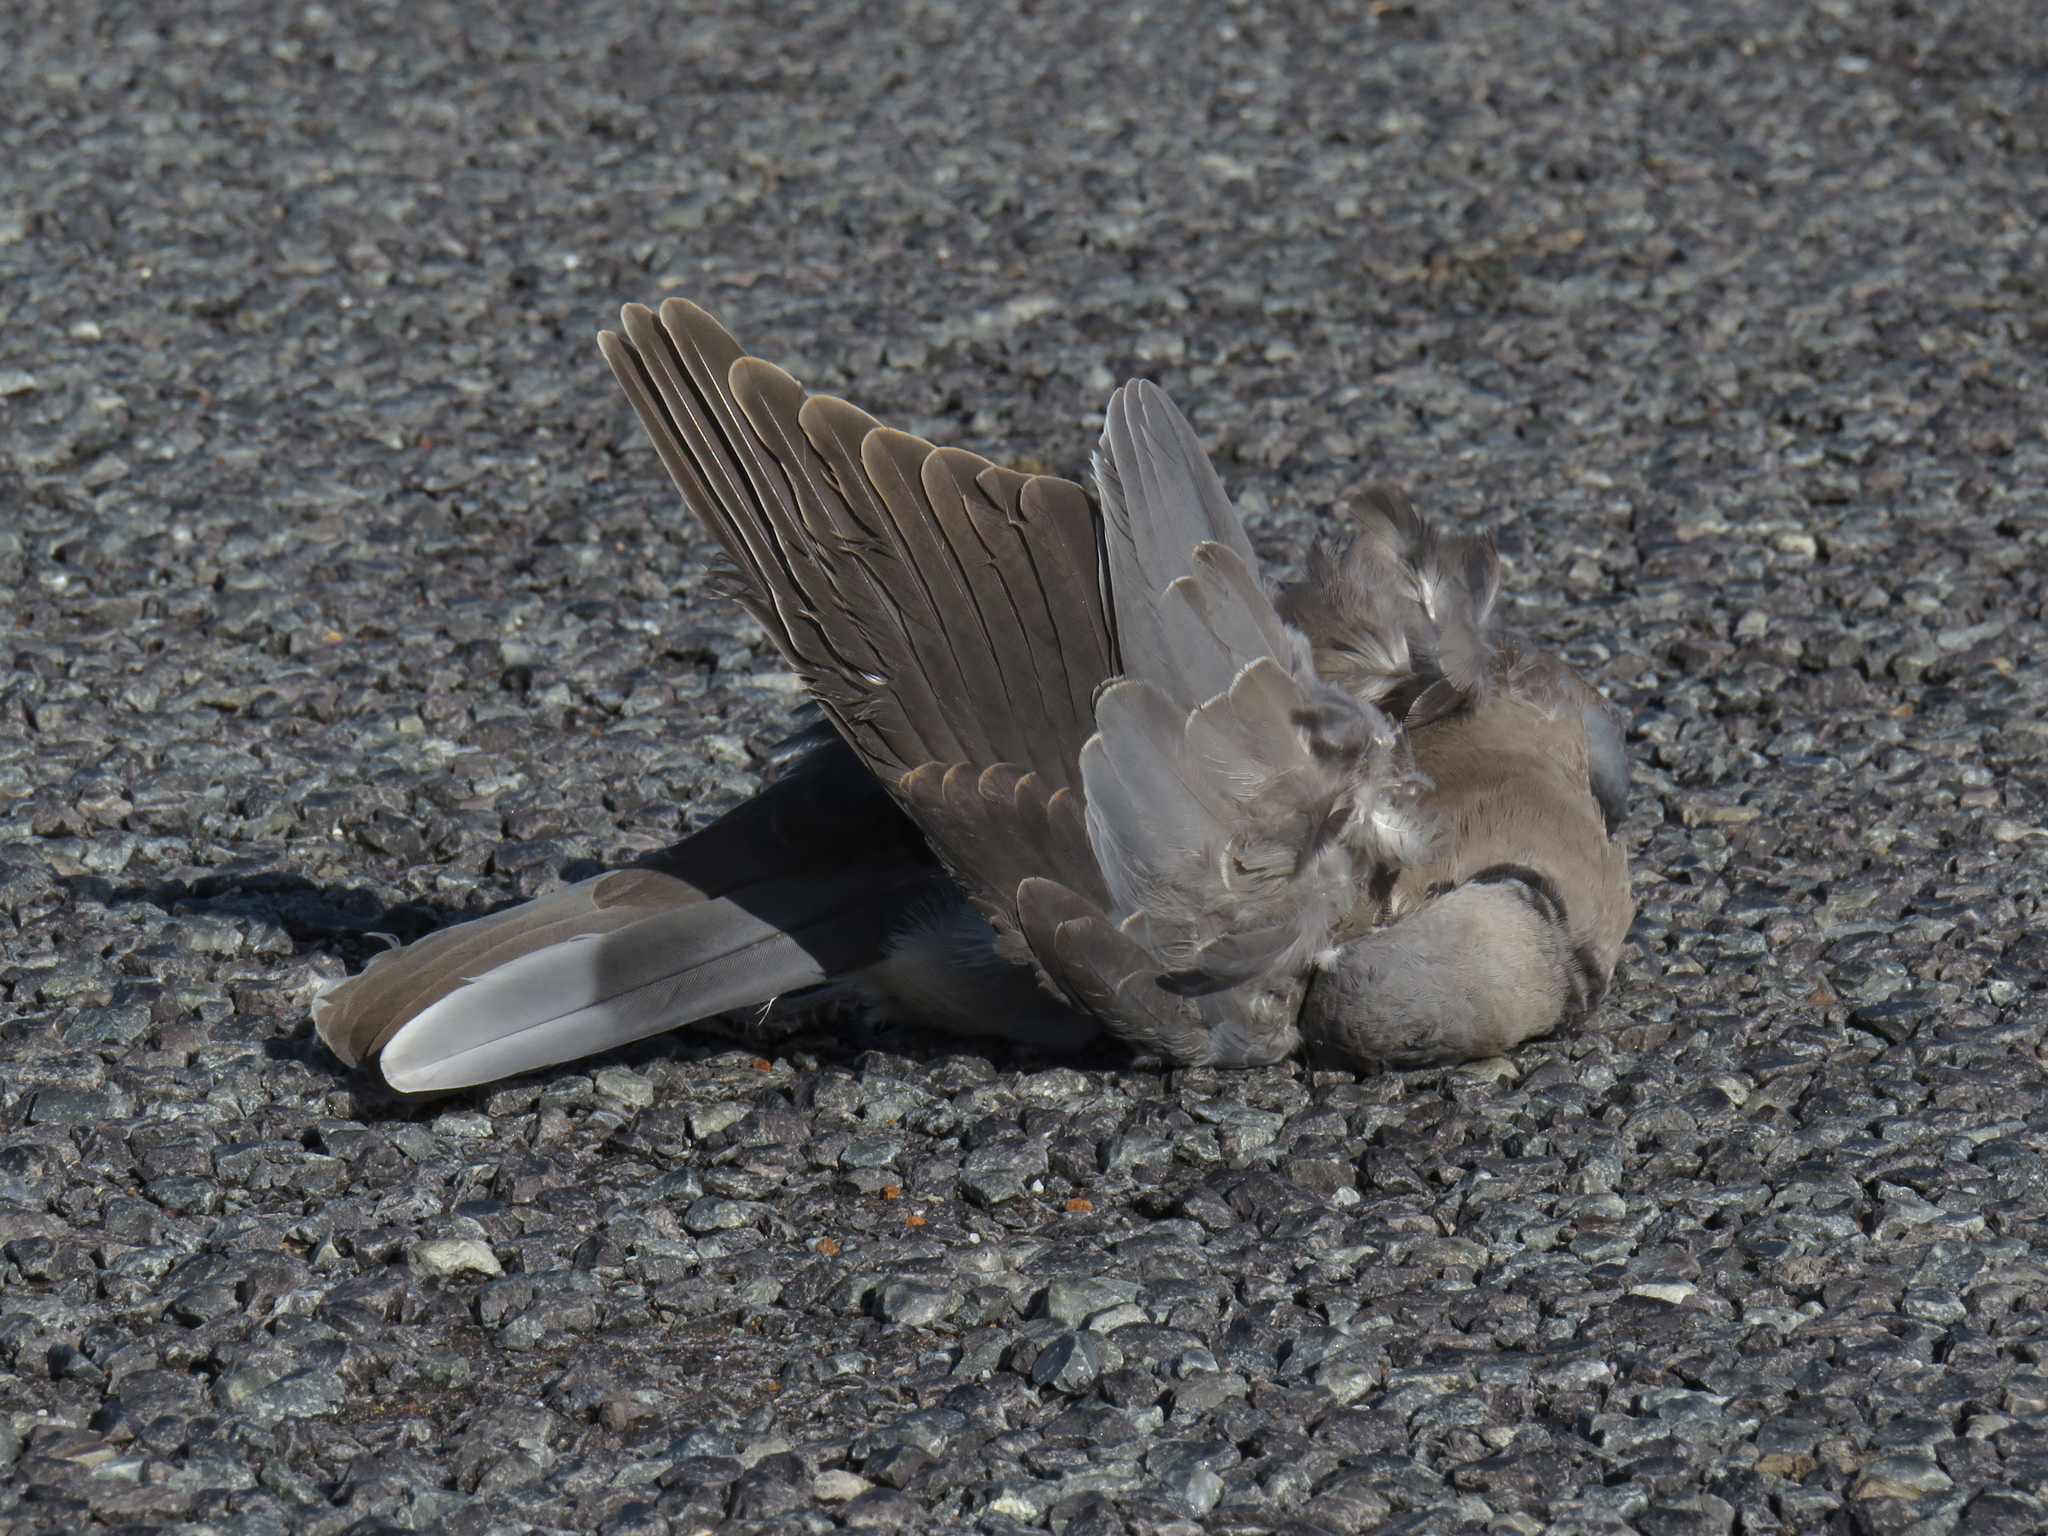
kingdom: Animalia
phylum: Chordata
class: Aves
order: Columbiformes
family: Columbidae
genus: Streptopelia
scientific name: Streptopelia capicola
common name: Ring-necked dove
